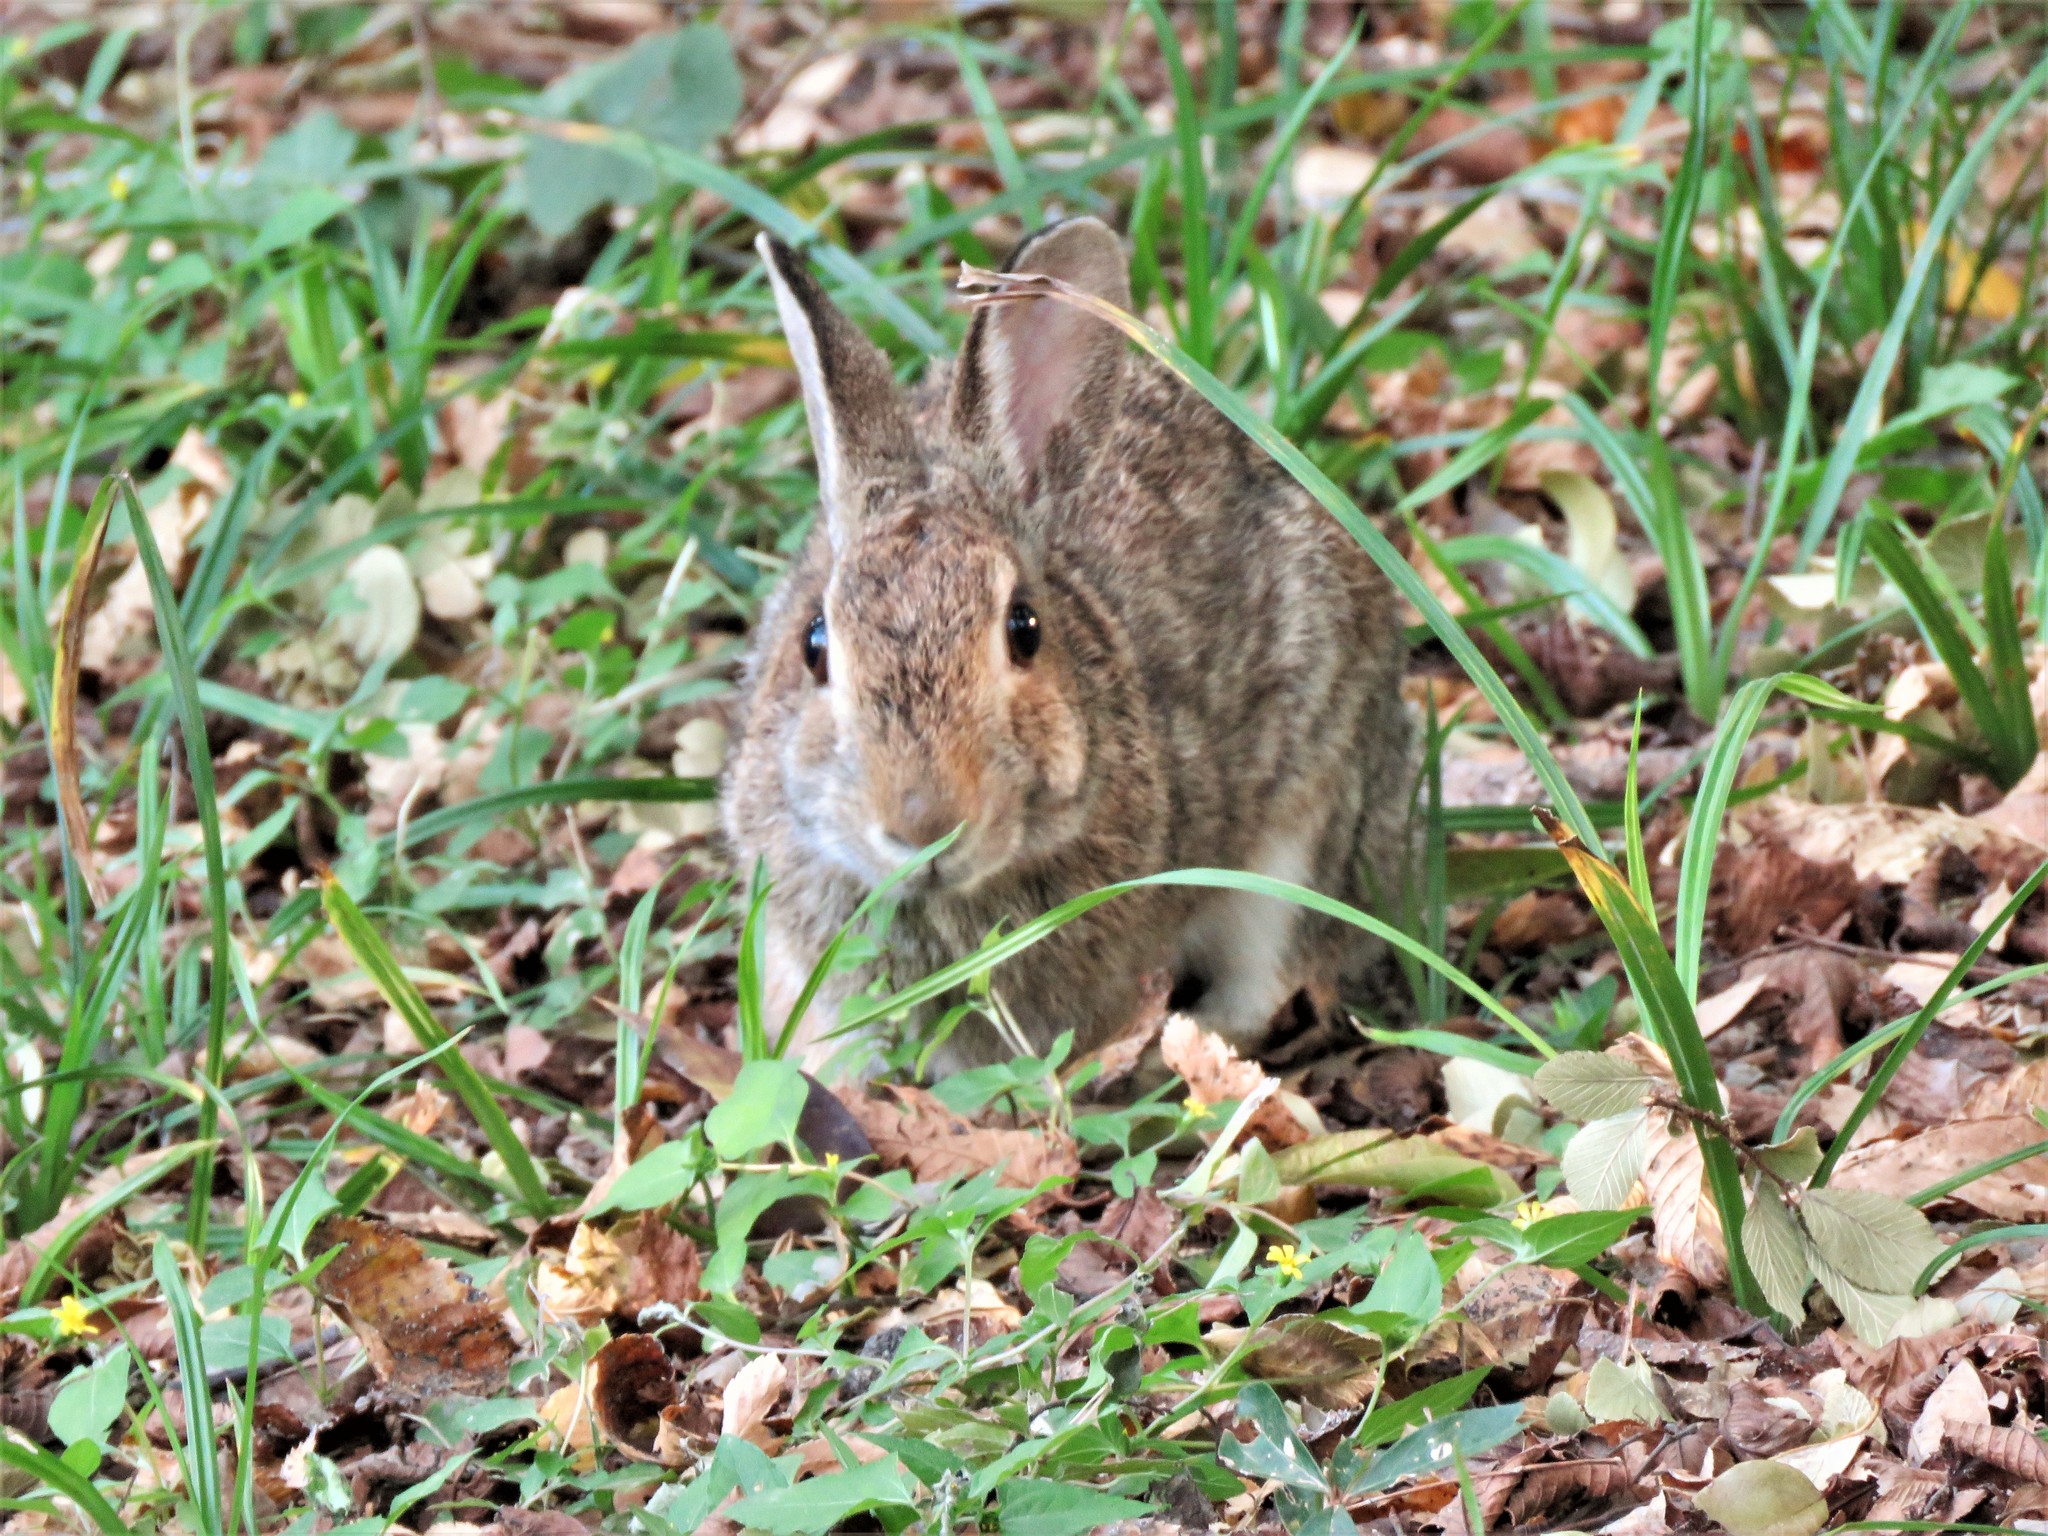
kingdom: Animalia
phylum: Chordata
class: Mammalia
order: Lagomorpha
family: Leporidae
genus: Sylvilagus
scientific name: Sylvilagus floridanus
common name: Eastern cottontail
